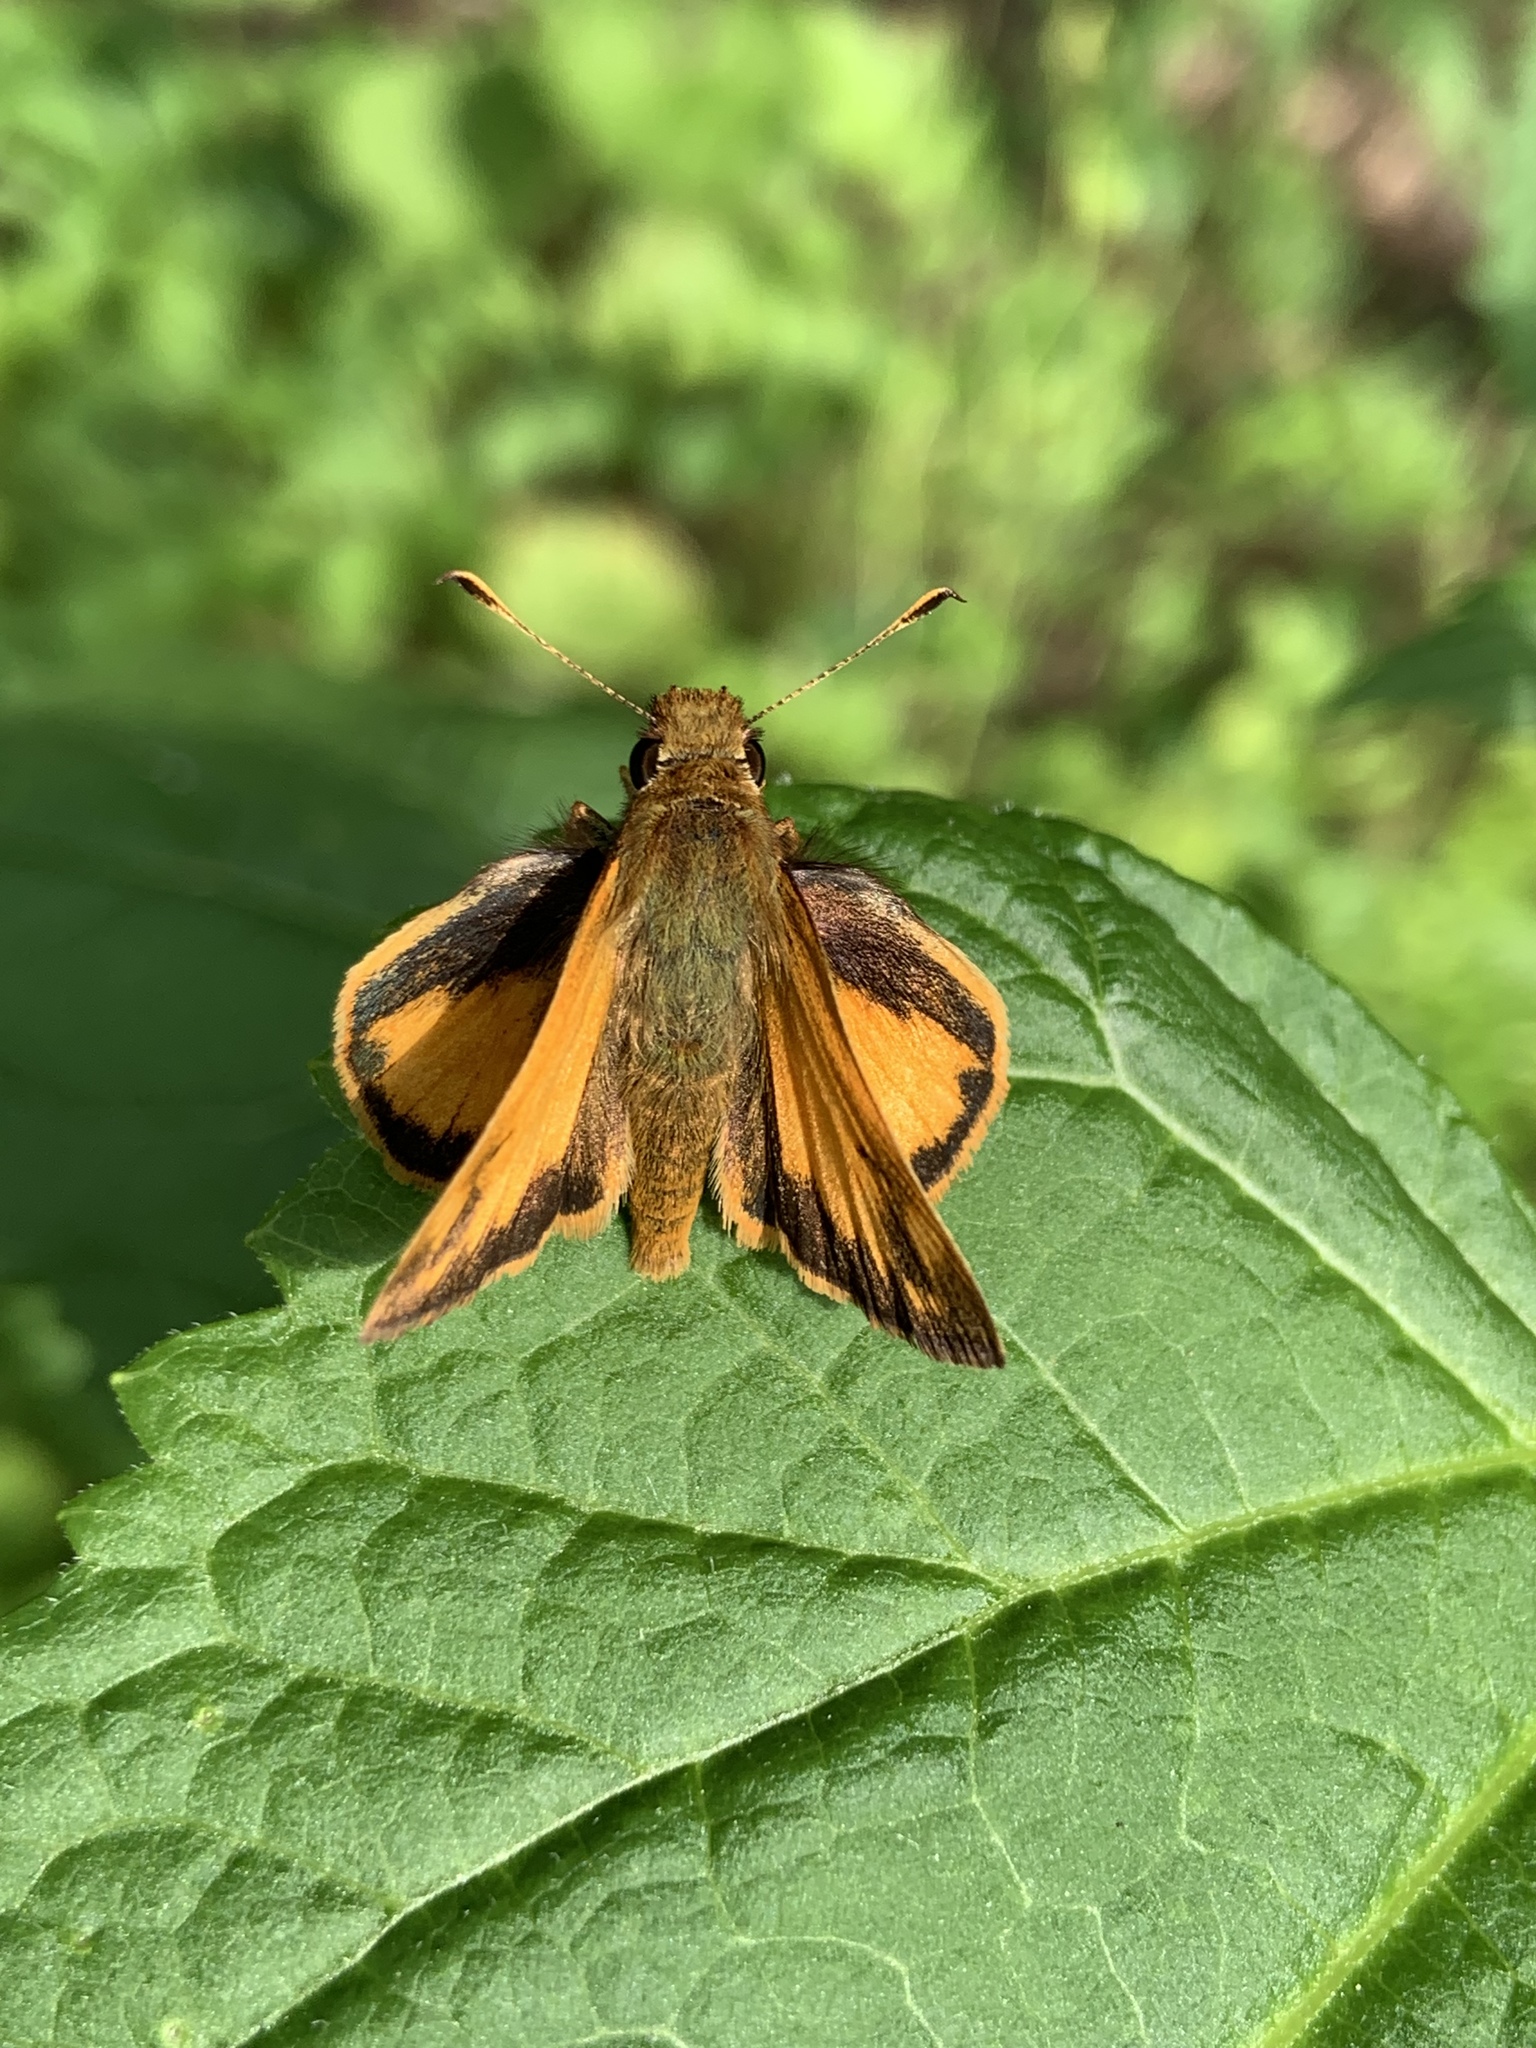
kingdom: Animalia
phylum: Arthropoda
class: Insecta
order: Lepidoptera
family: Hesperiidae
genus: Lon
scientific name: Lon zabulon
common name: Zabulon skipper
